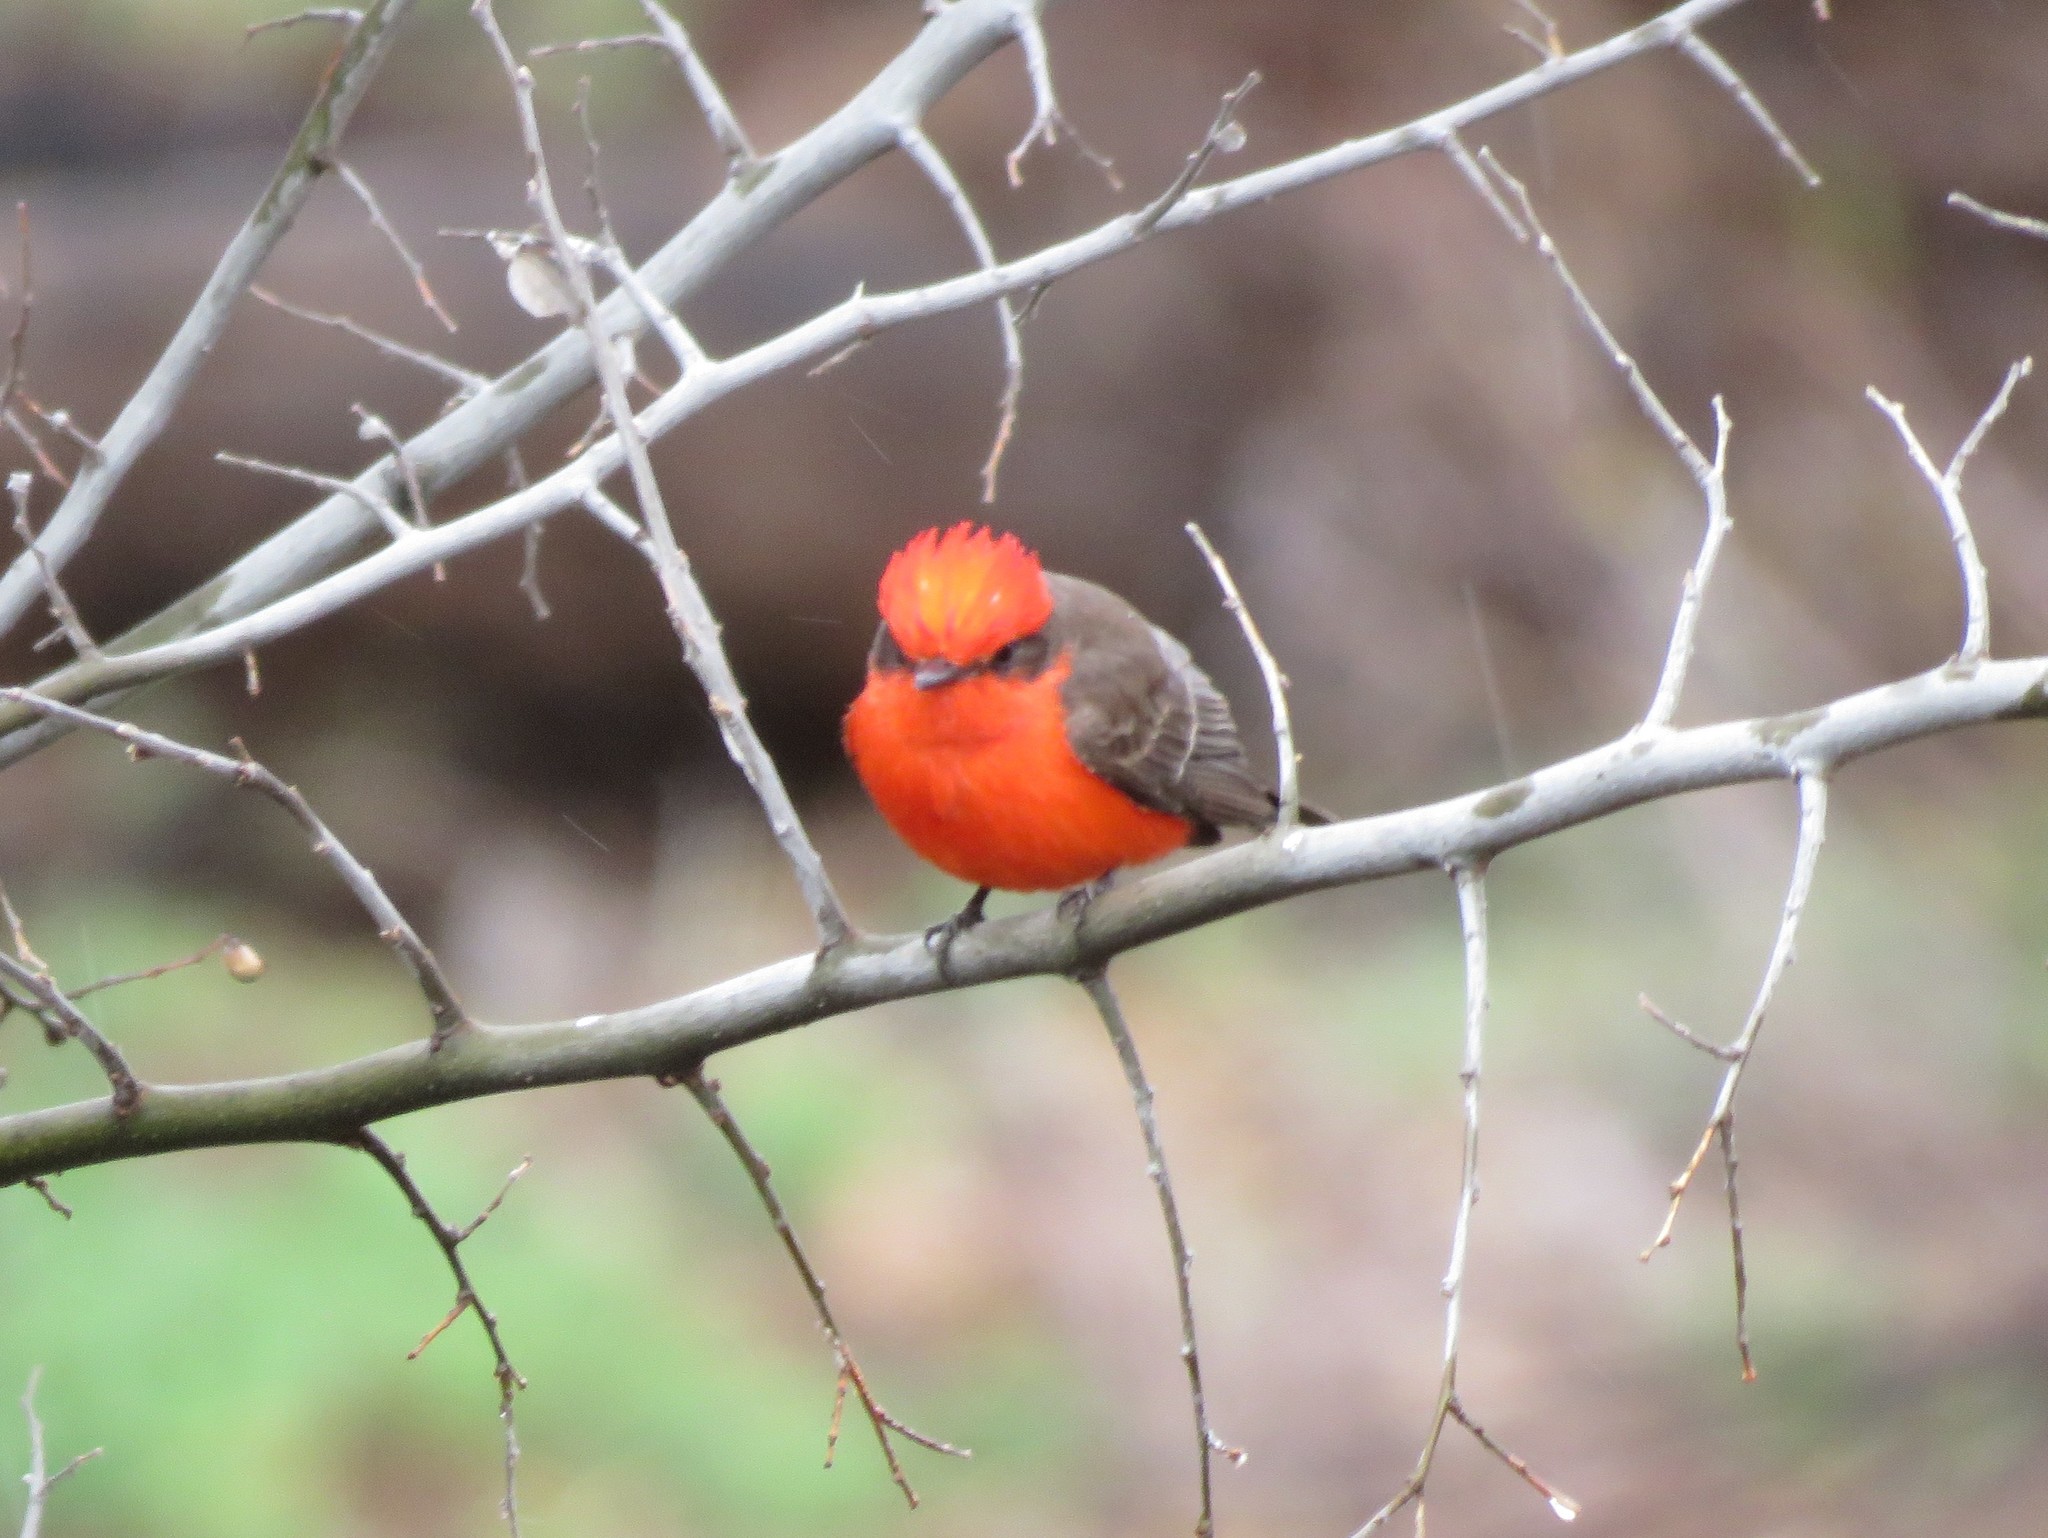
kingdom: Animalia
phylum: Chordata
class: Aves
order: Passeriformes
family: Tyrannidae
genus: Pyrocephalus
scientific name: Pyrocephalus rubinus
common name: Vermilion flycatcher
